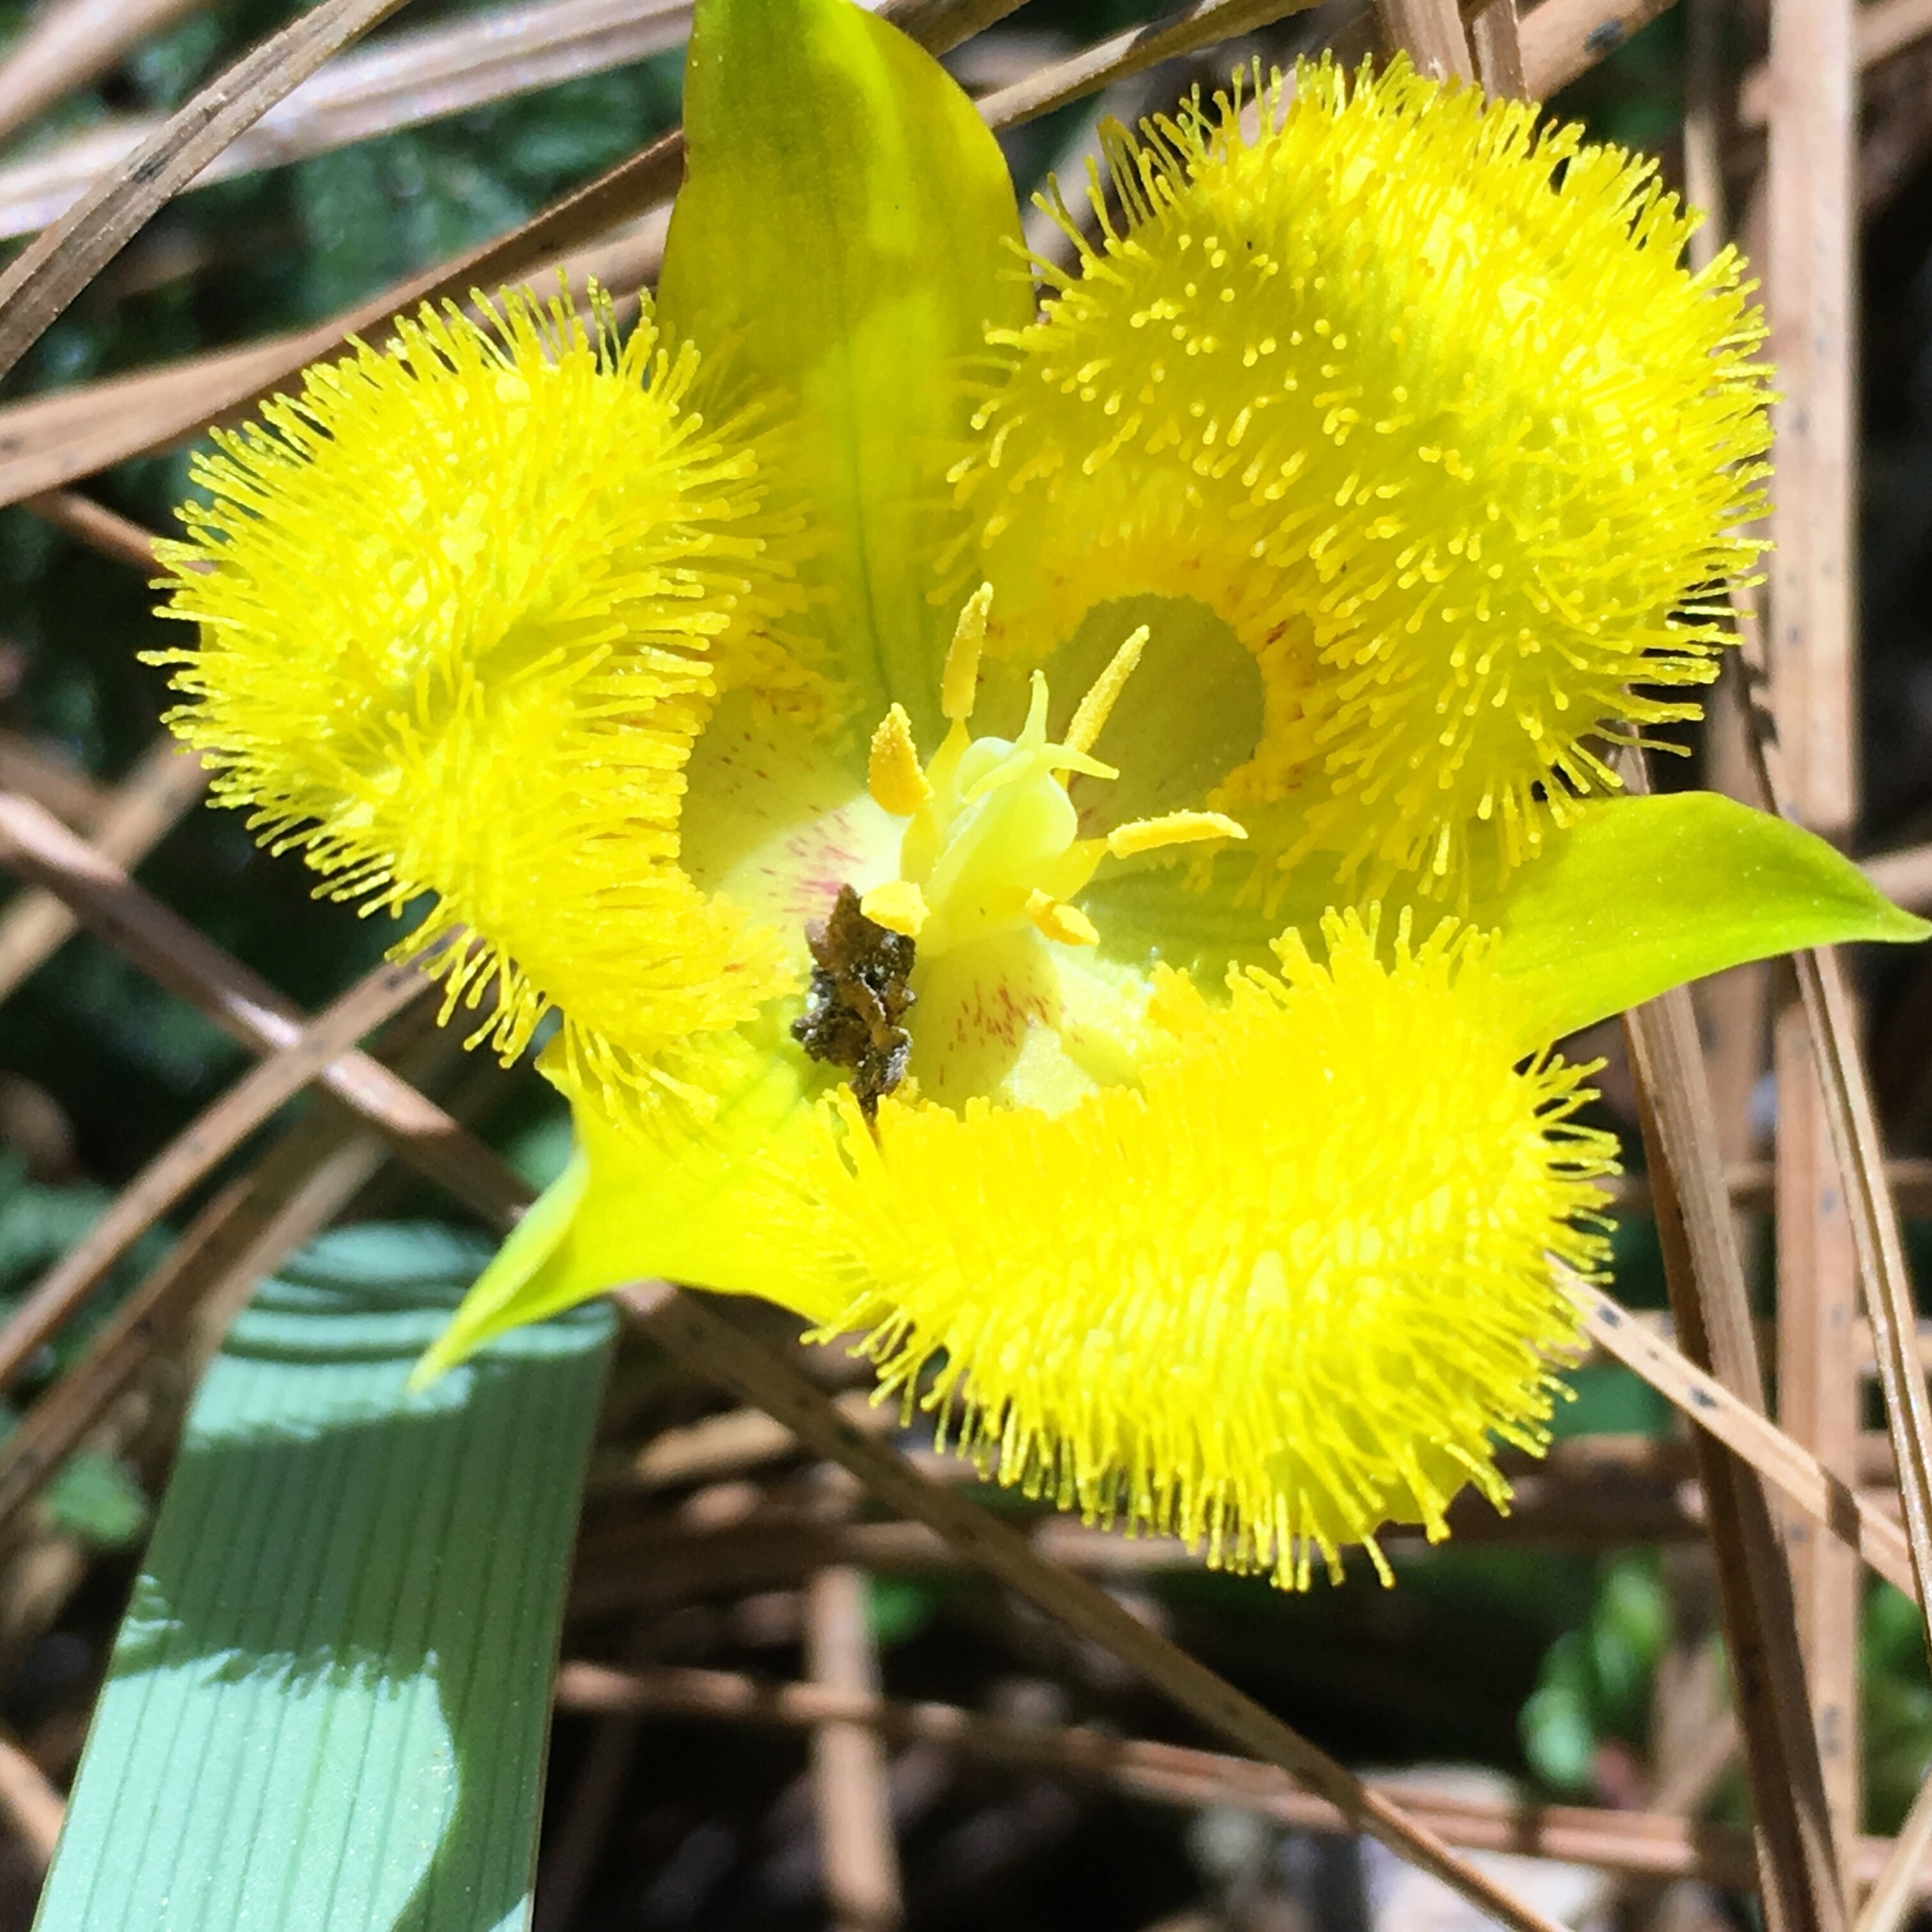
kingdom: Plantae
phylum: Tracheophyta
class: Liliopsida
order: Liliales
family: Liliaceae
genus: Calochortus
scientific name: Calochortus monophyllus
